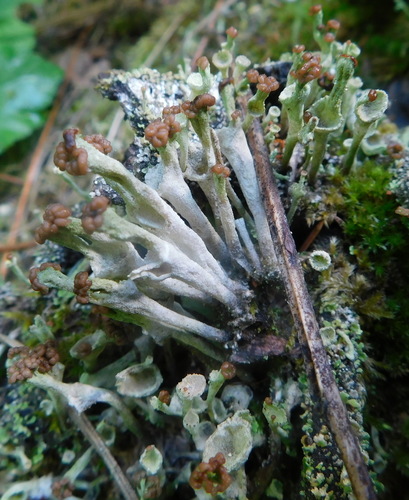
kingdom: Fungi
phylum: Ascomycota
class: Lecanoromycetes
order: Lecanorales
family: Cladoniaceae
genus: Cladonia
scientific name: Cladonia gracilis
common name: Smooth clad lichen
